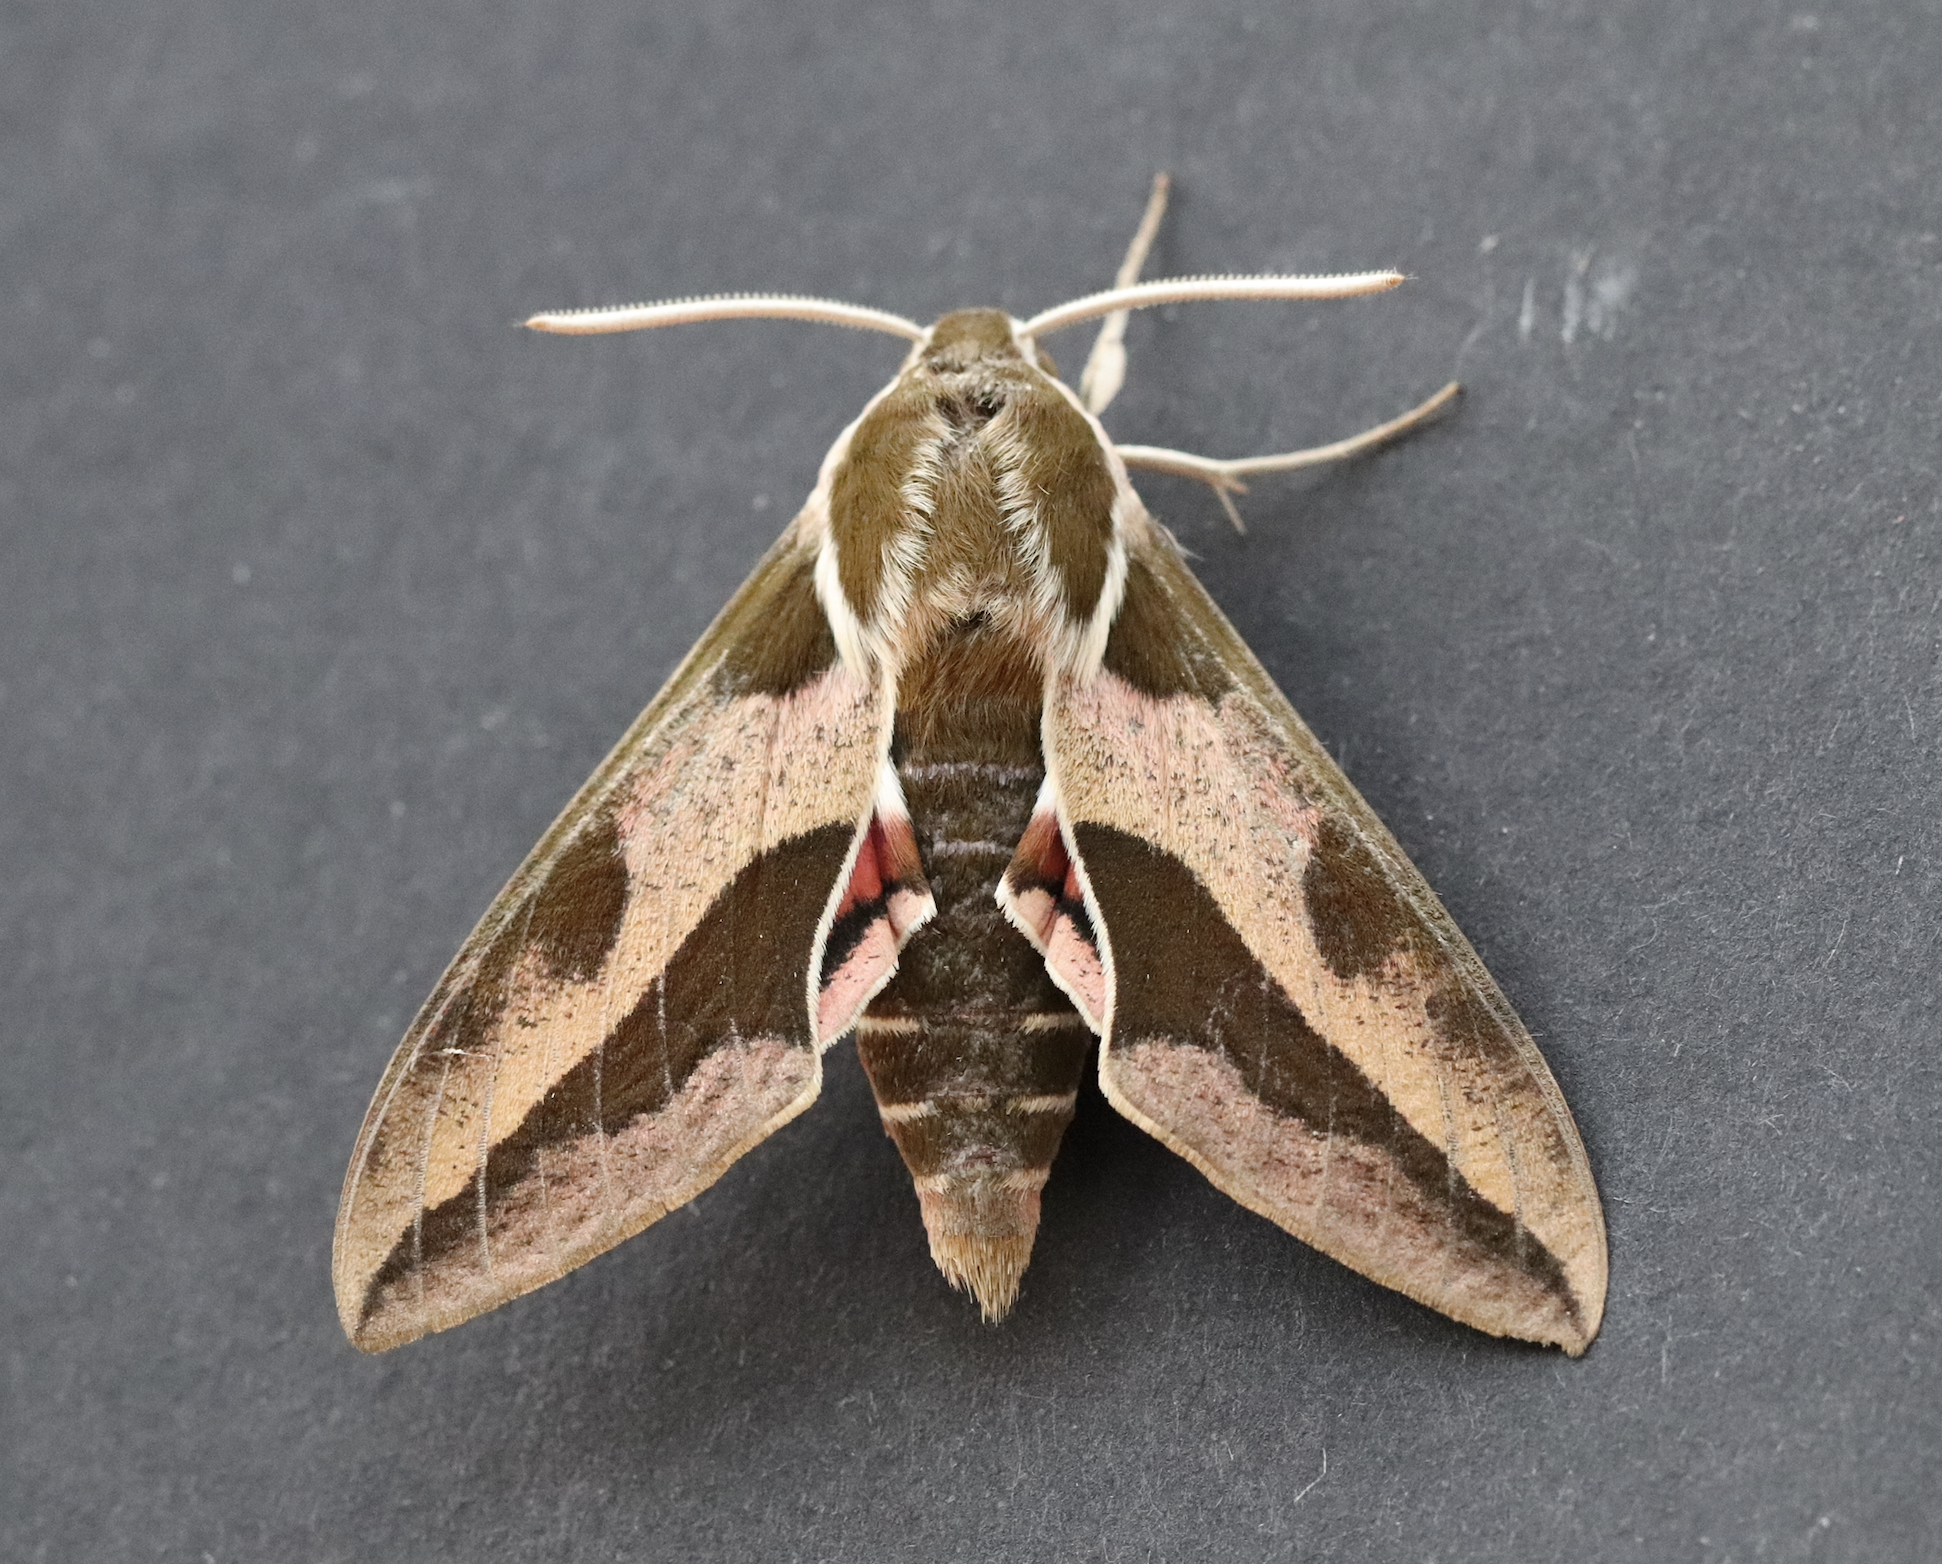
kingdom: Animalia
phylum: Arthropoda
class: Insecta
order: Lepidoptera
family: Sphingidae
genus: Hyles
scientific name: Hyles euphorbiae
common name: Spurge hawk-moth
